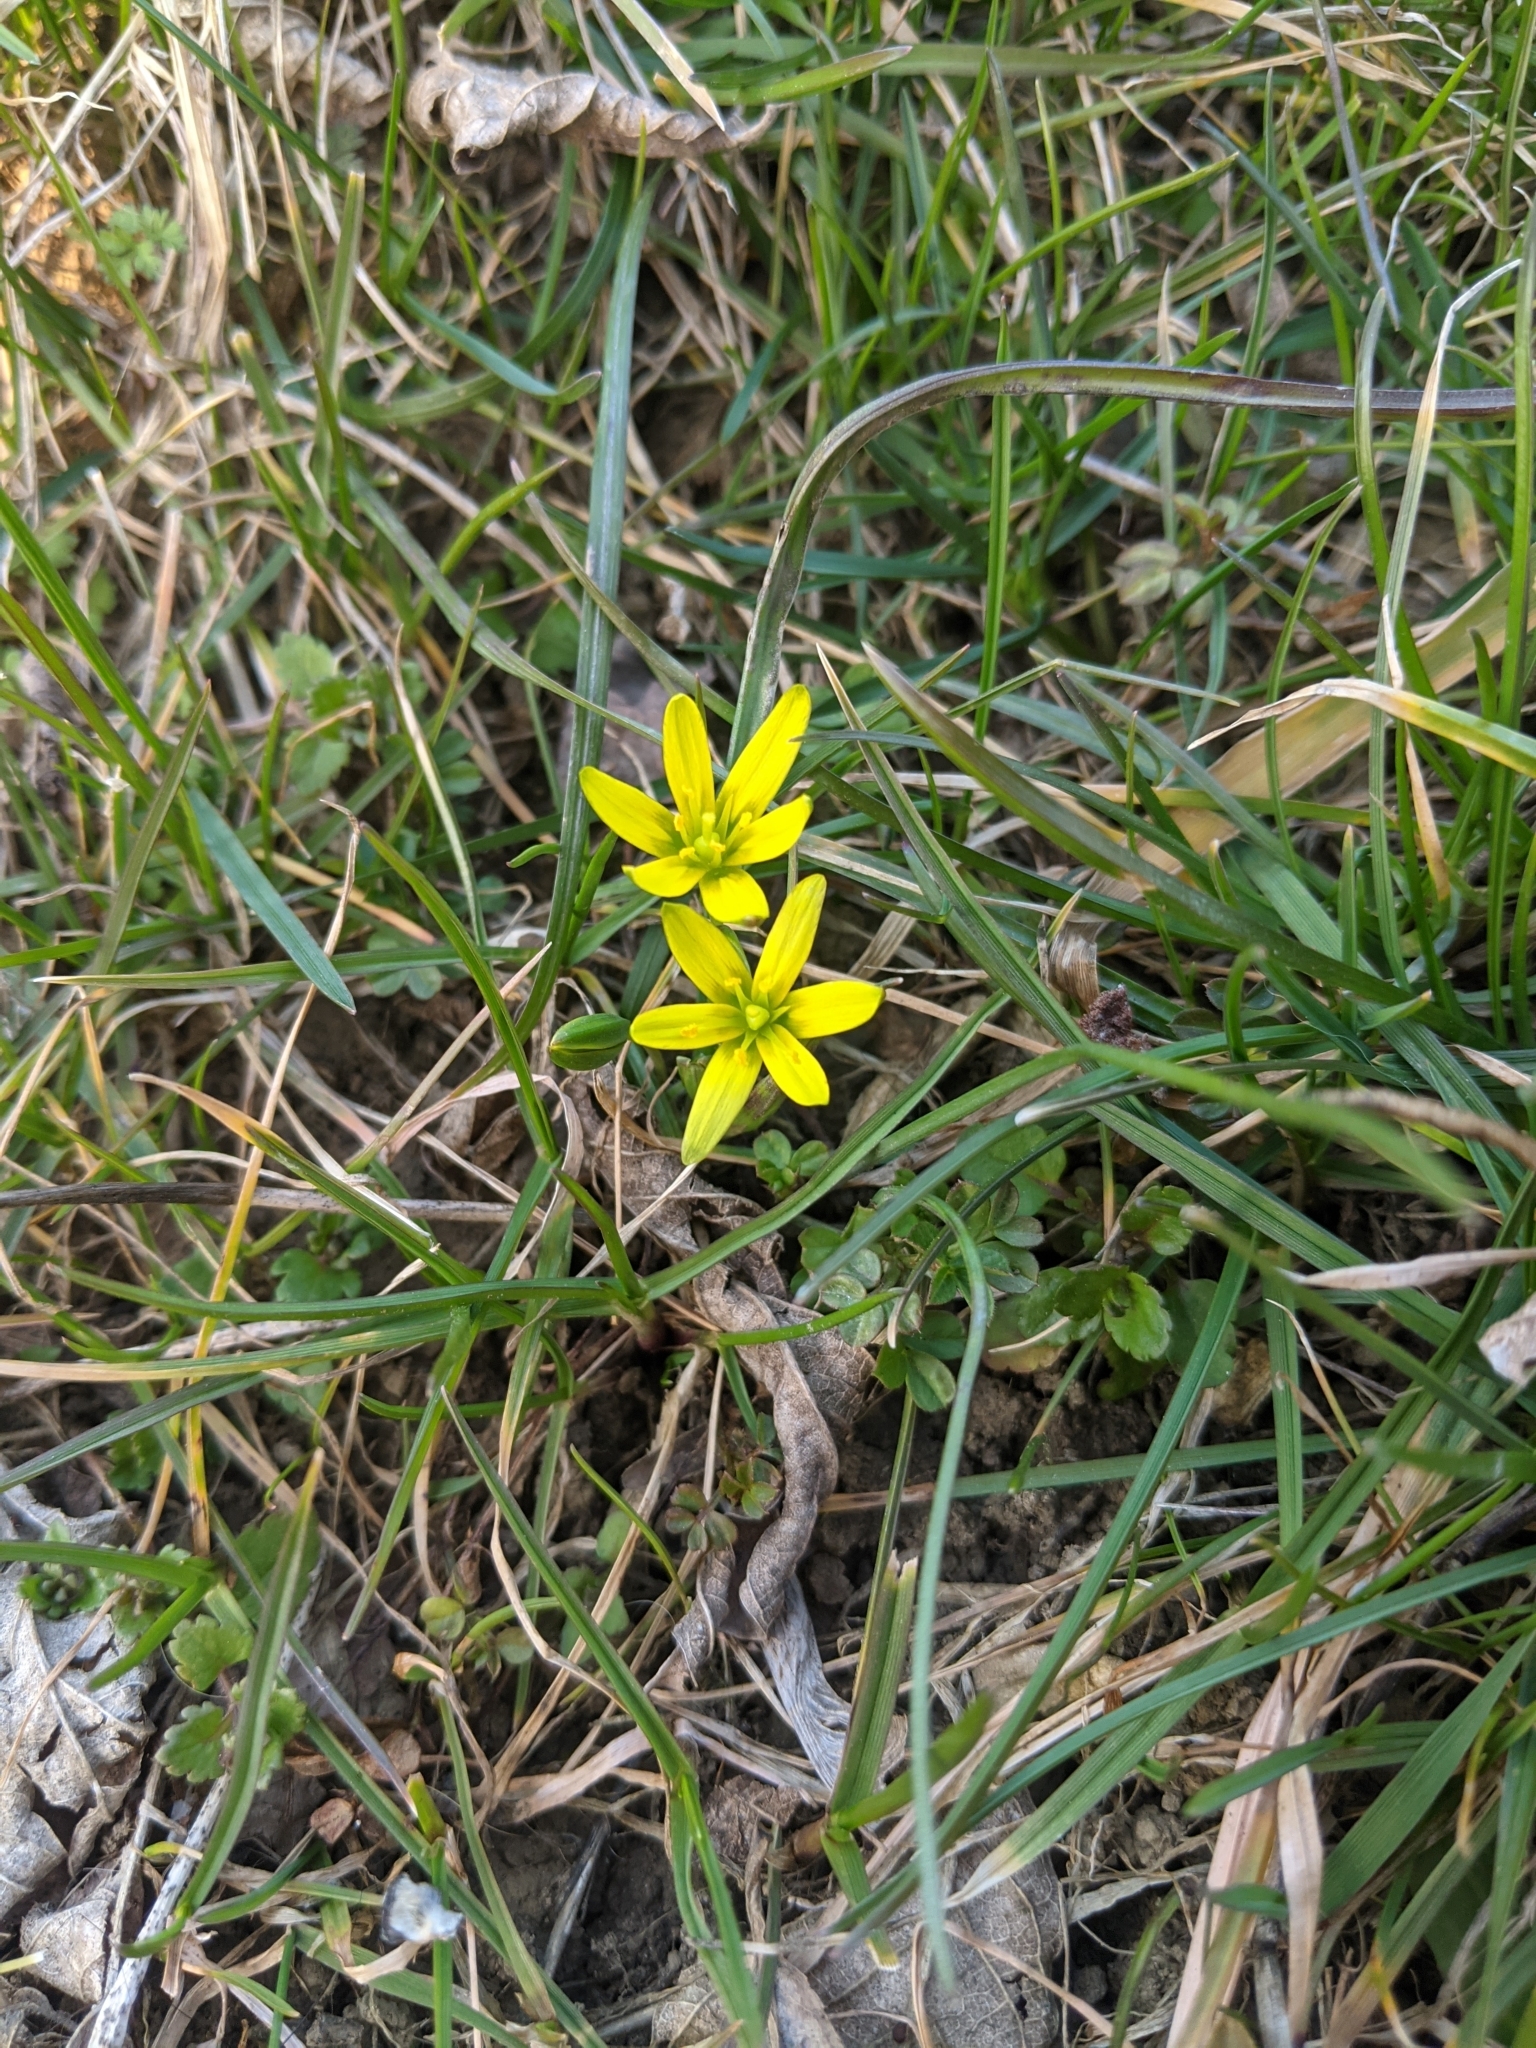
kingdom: Plantae
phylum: Tracheophyta
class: Liliopsida
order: Liliales
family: Liliaceae
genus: Gagea
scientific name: Gagea pratensis
